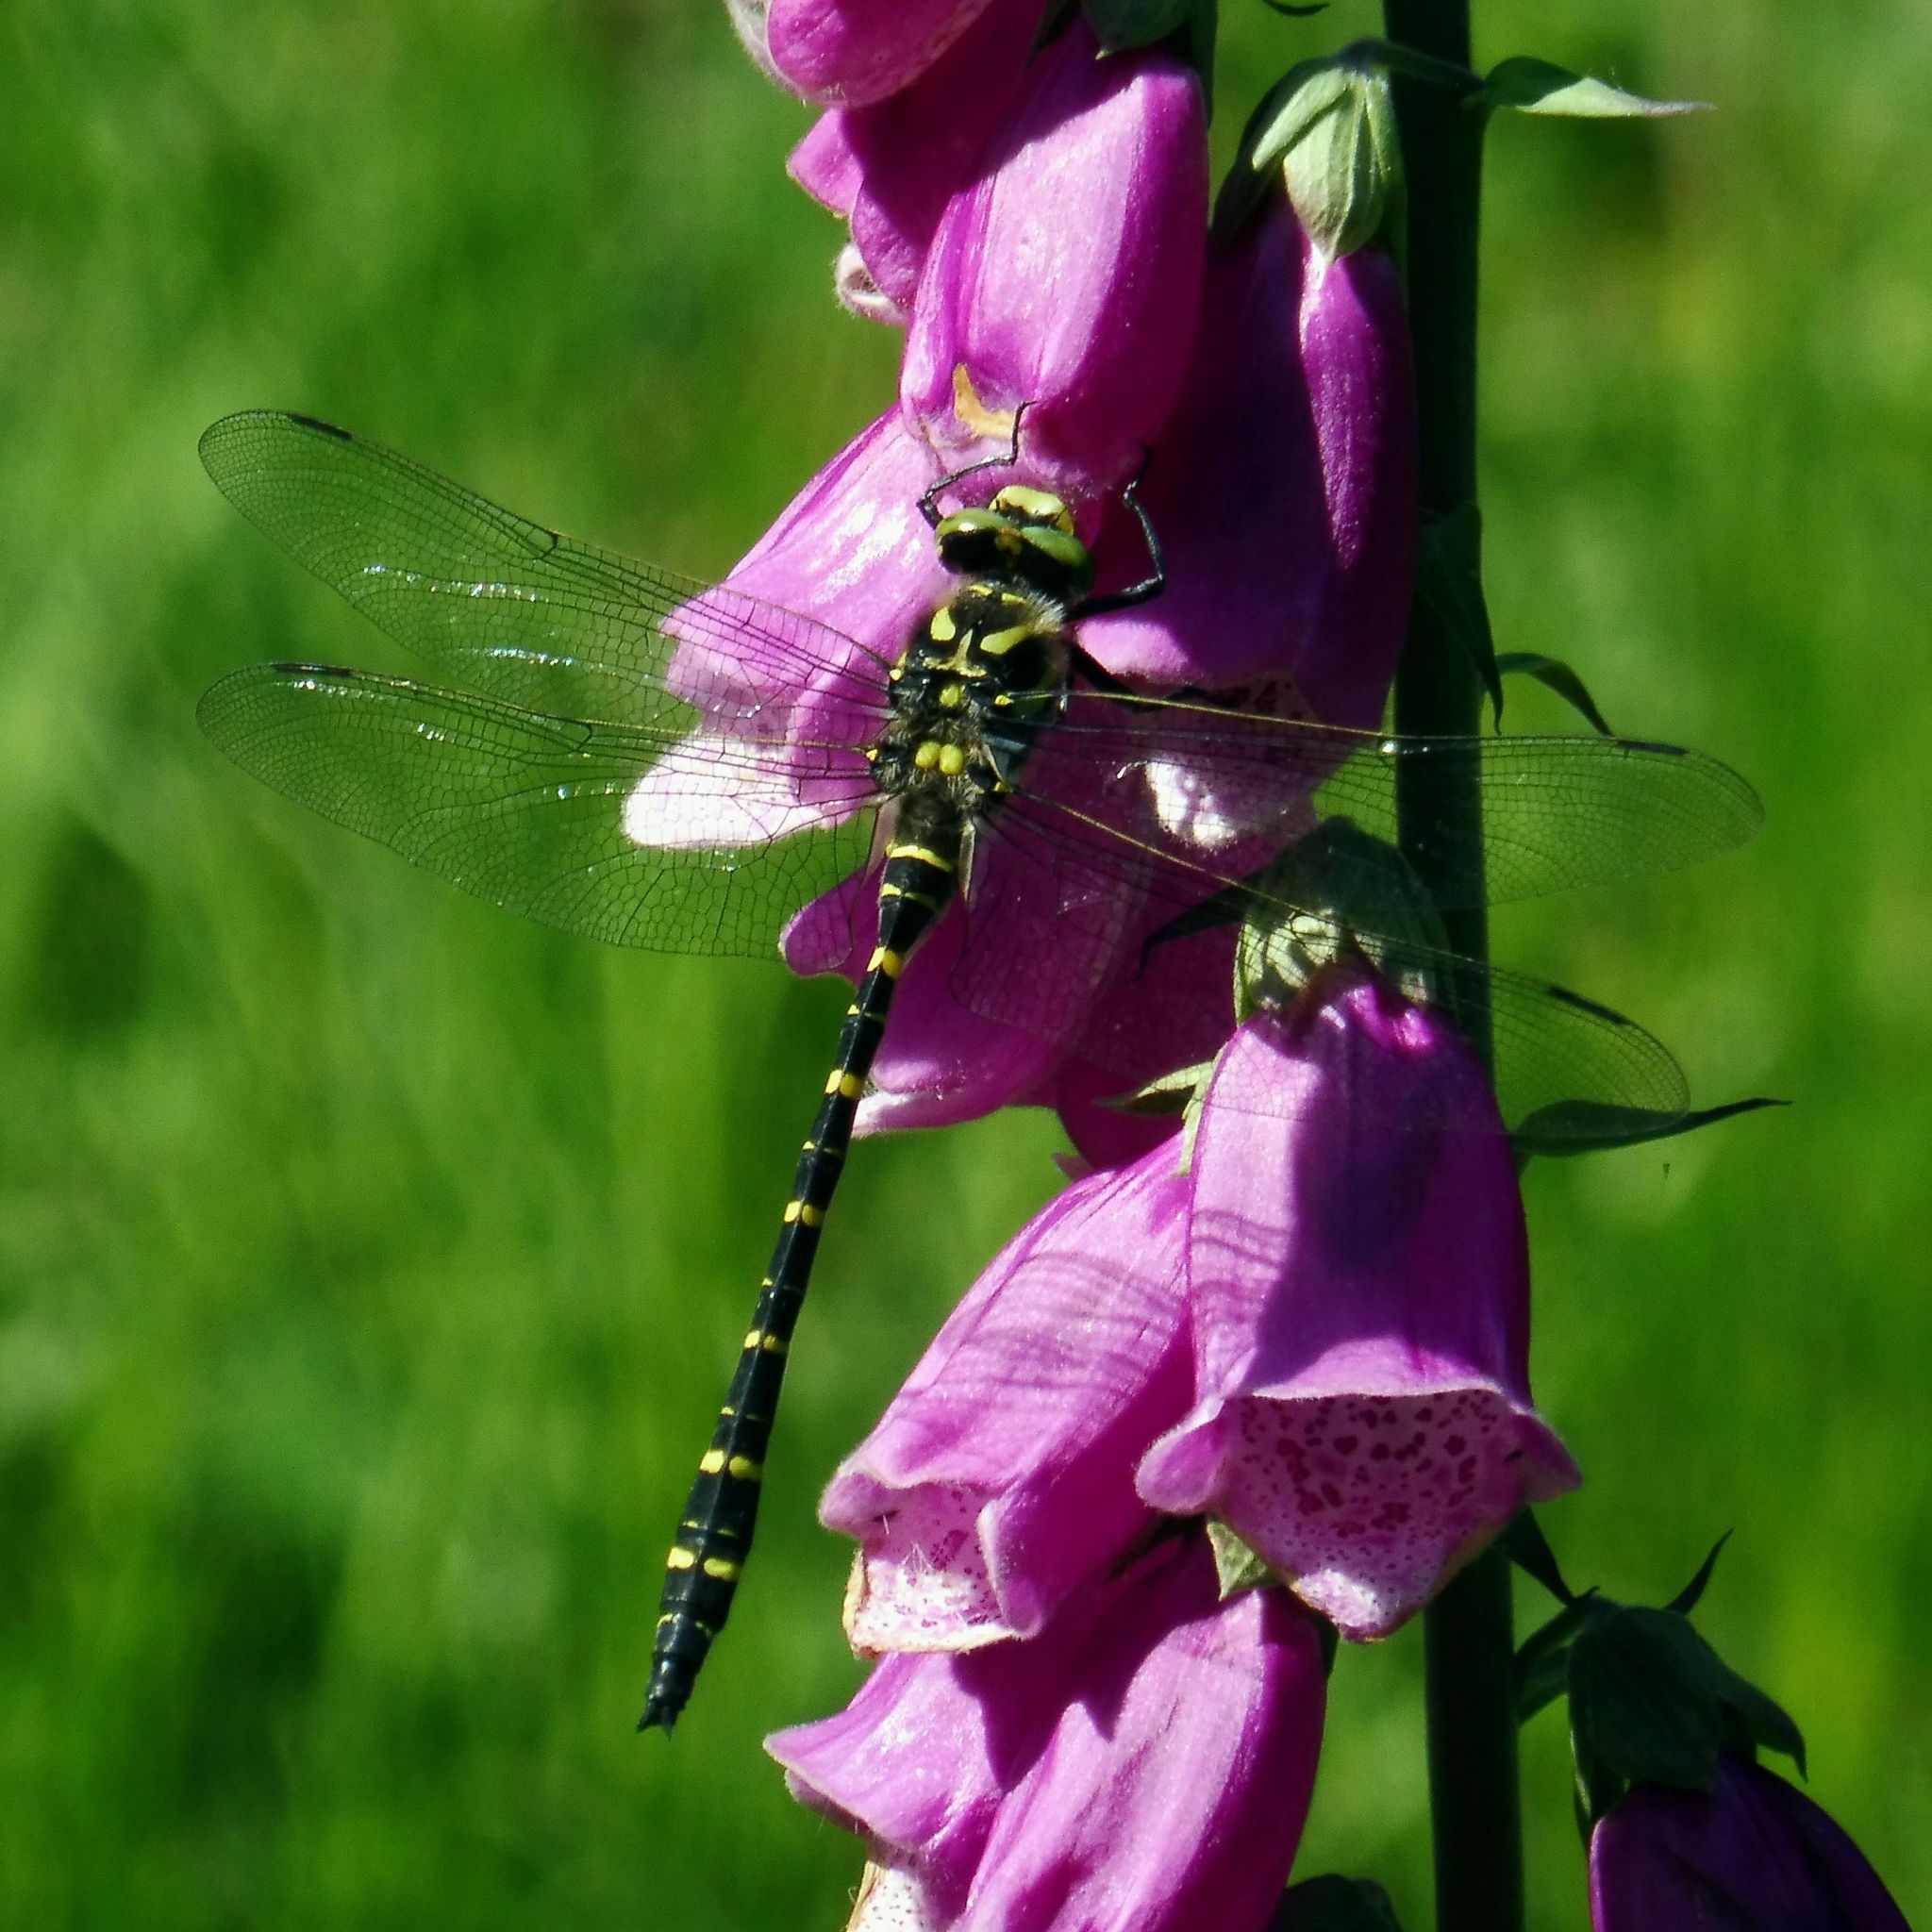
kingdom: Animalia
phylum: Arthropoda
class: Insecta
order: Odonata
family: Cordulegastridae
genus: Cordulegaster
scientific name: Cordulegaster boltonii
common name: Golden-ringed dragonfly
